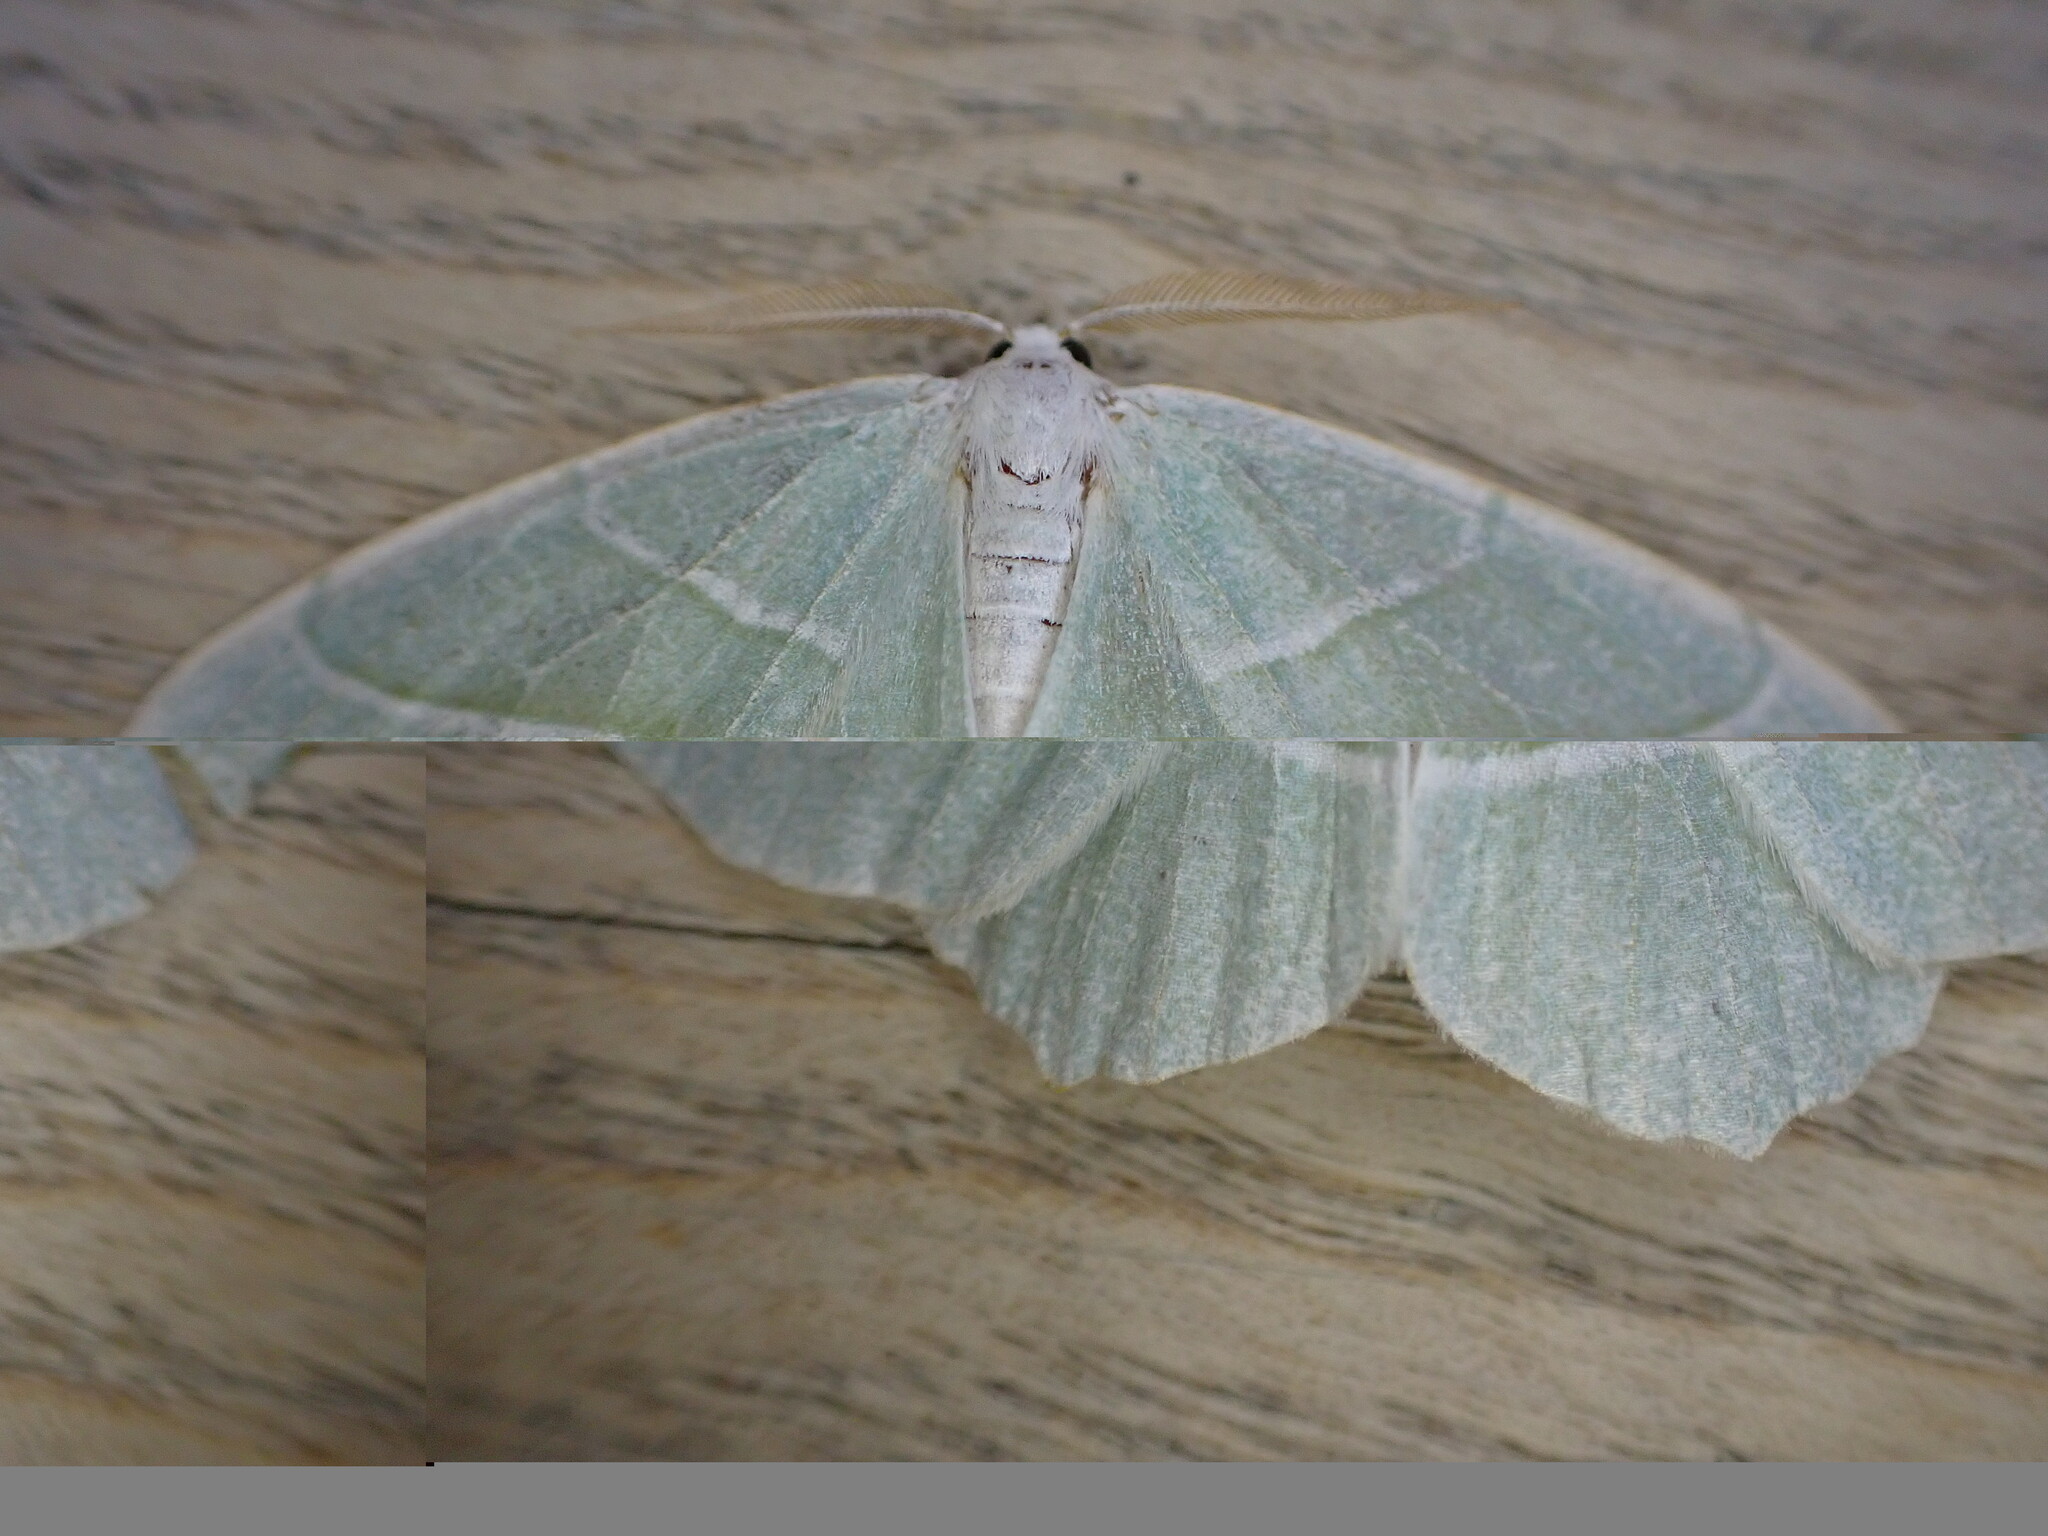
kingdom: Animalia
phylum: Arthropoda
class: Insecta
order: Lepidoptera
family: Geometridae
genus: Campaea
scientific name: Campaea margaritaria
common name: Light emerald
